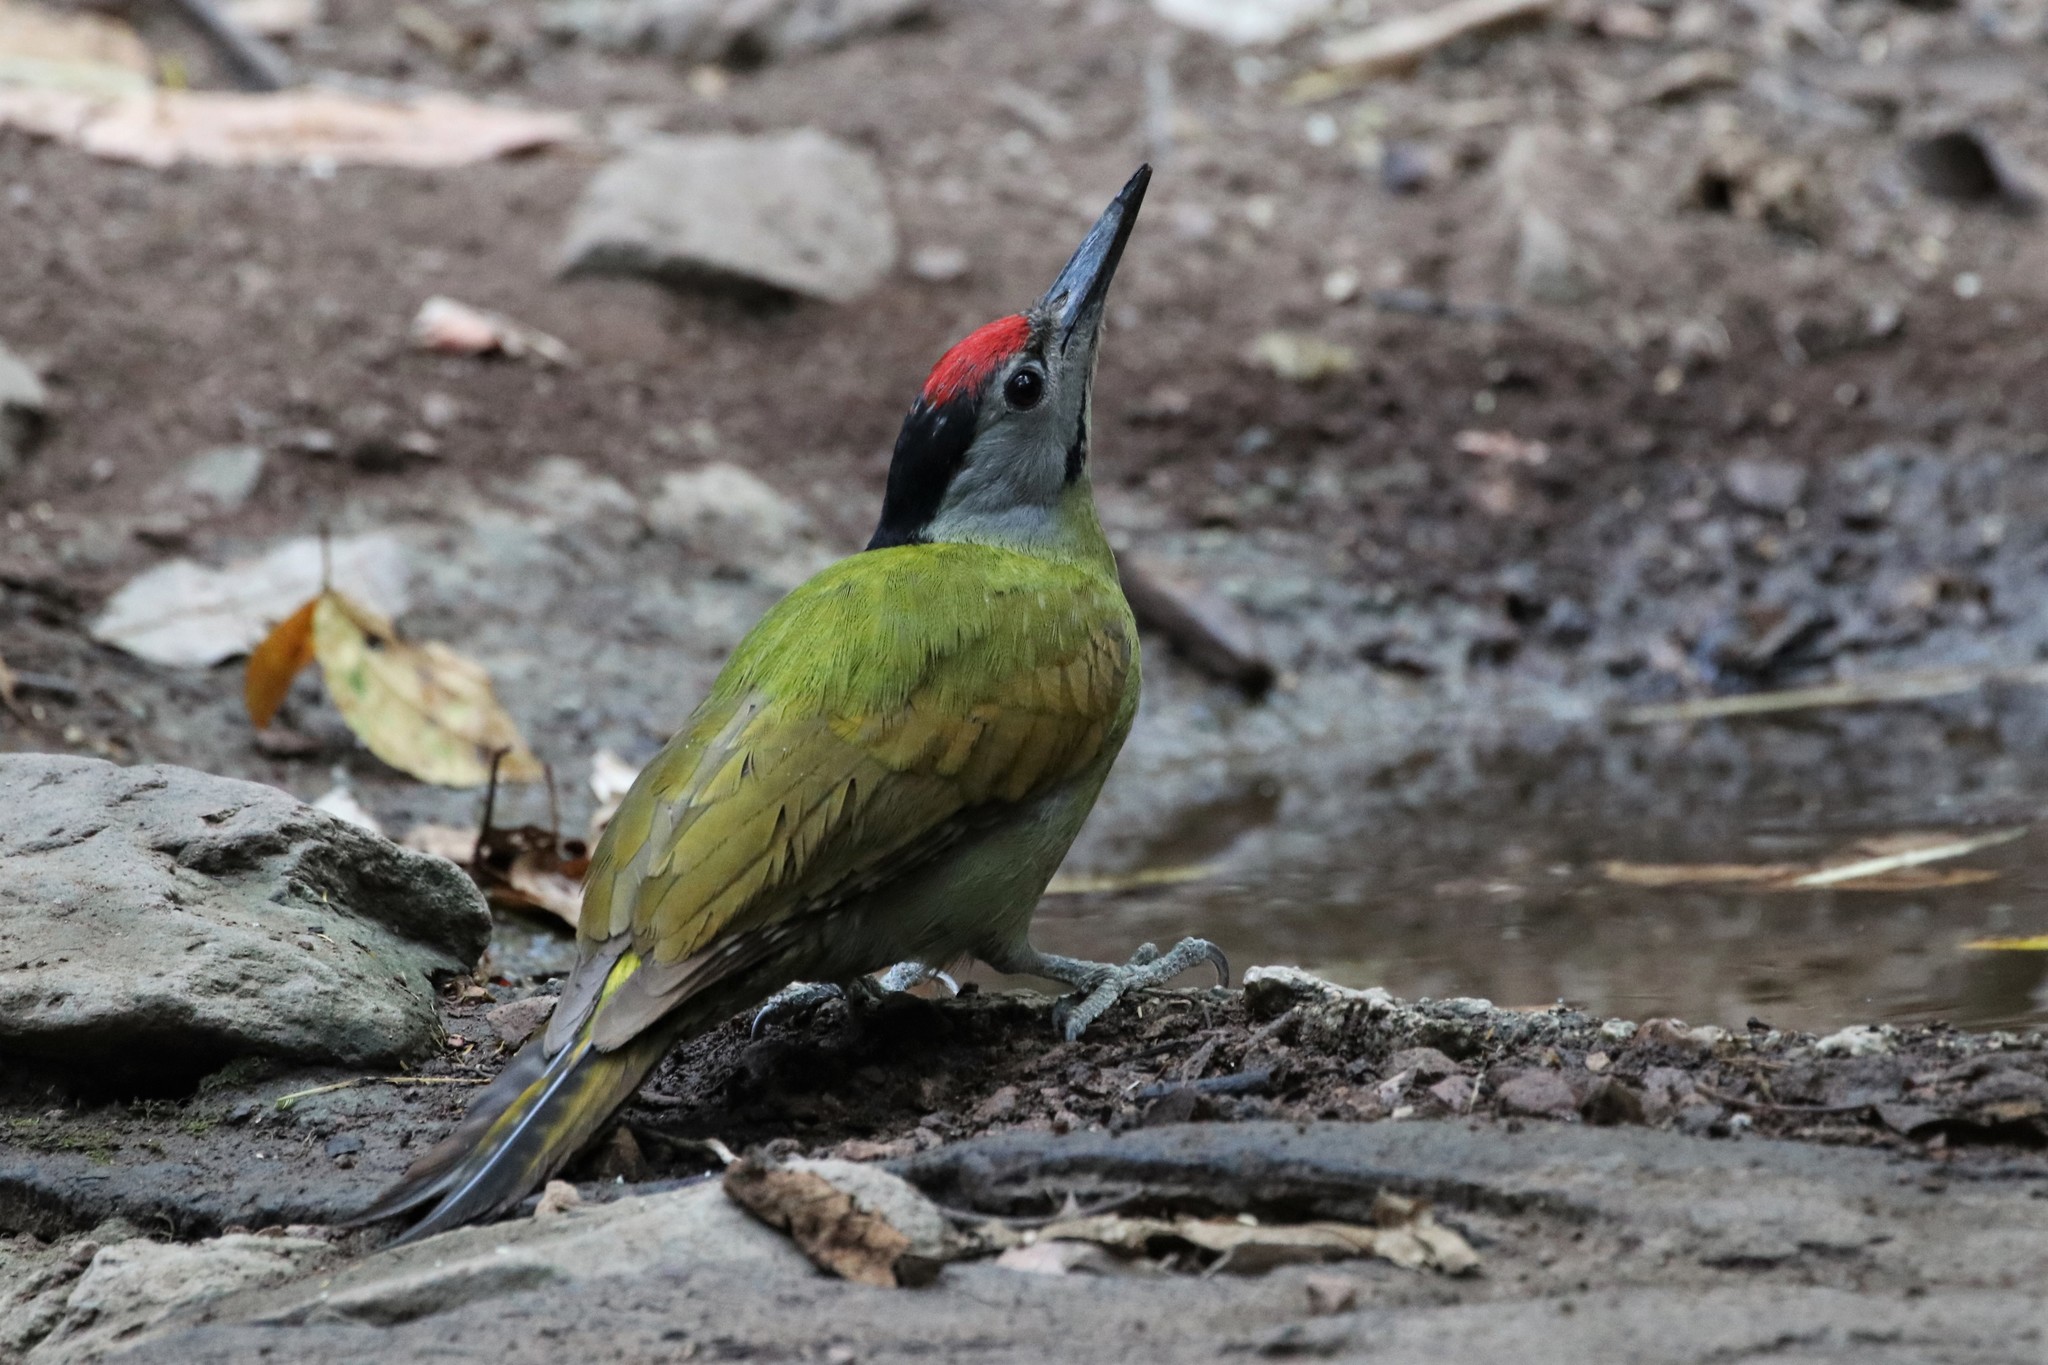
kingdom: Animalia
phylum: Chordata
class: Aves
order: Piciformes
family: Picidae
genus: Picus
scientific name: Picus canus
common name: Grey-headed woodpecker
